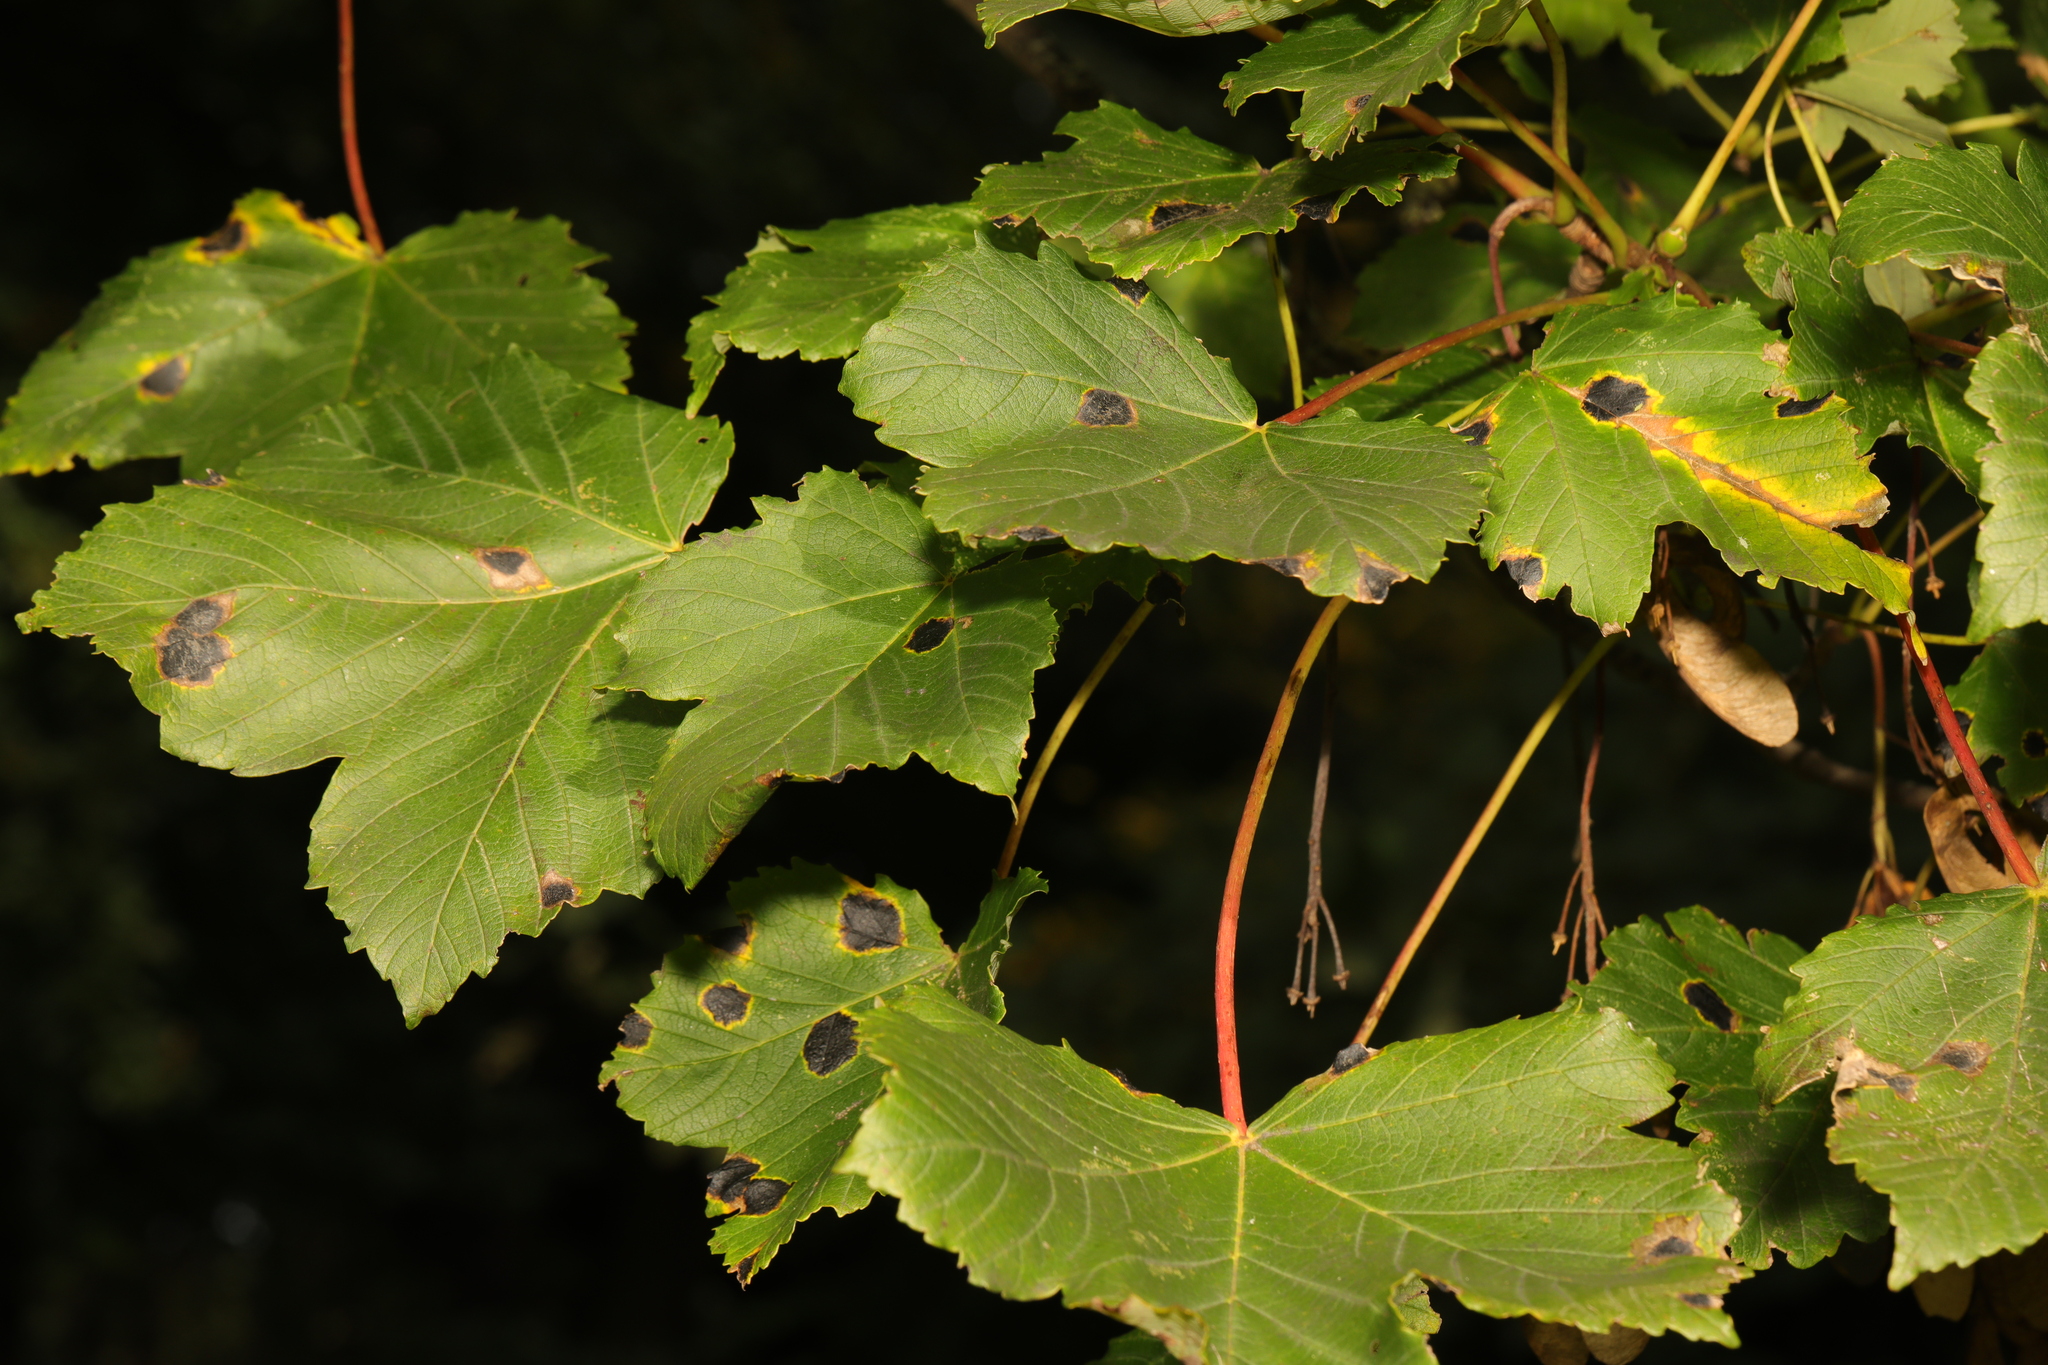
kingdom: Plantae
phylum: Tracheophyta
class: Magnoliopsida
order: Sapindales
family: Sapindaceae
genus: Acer
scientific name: Acer pseudoplatanus
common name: Sycamore
